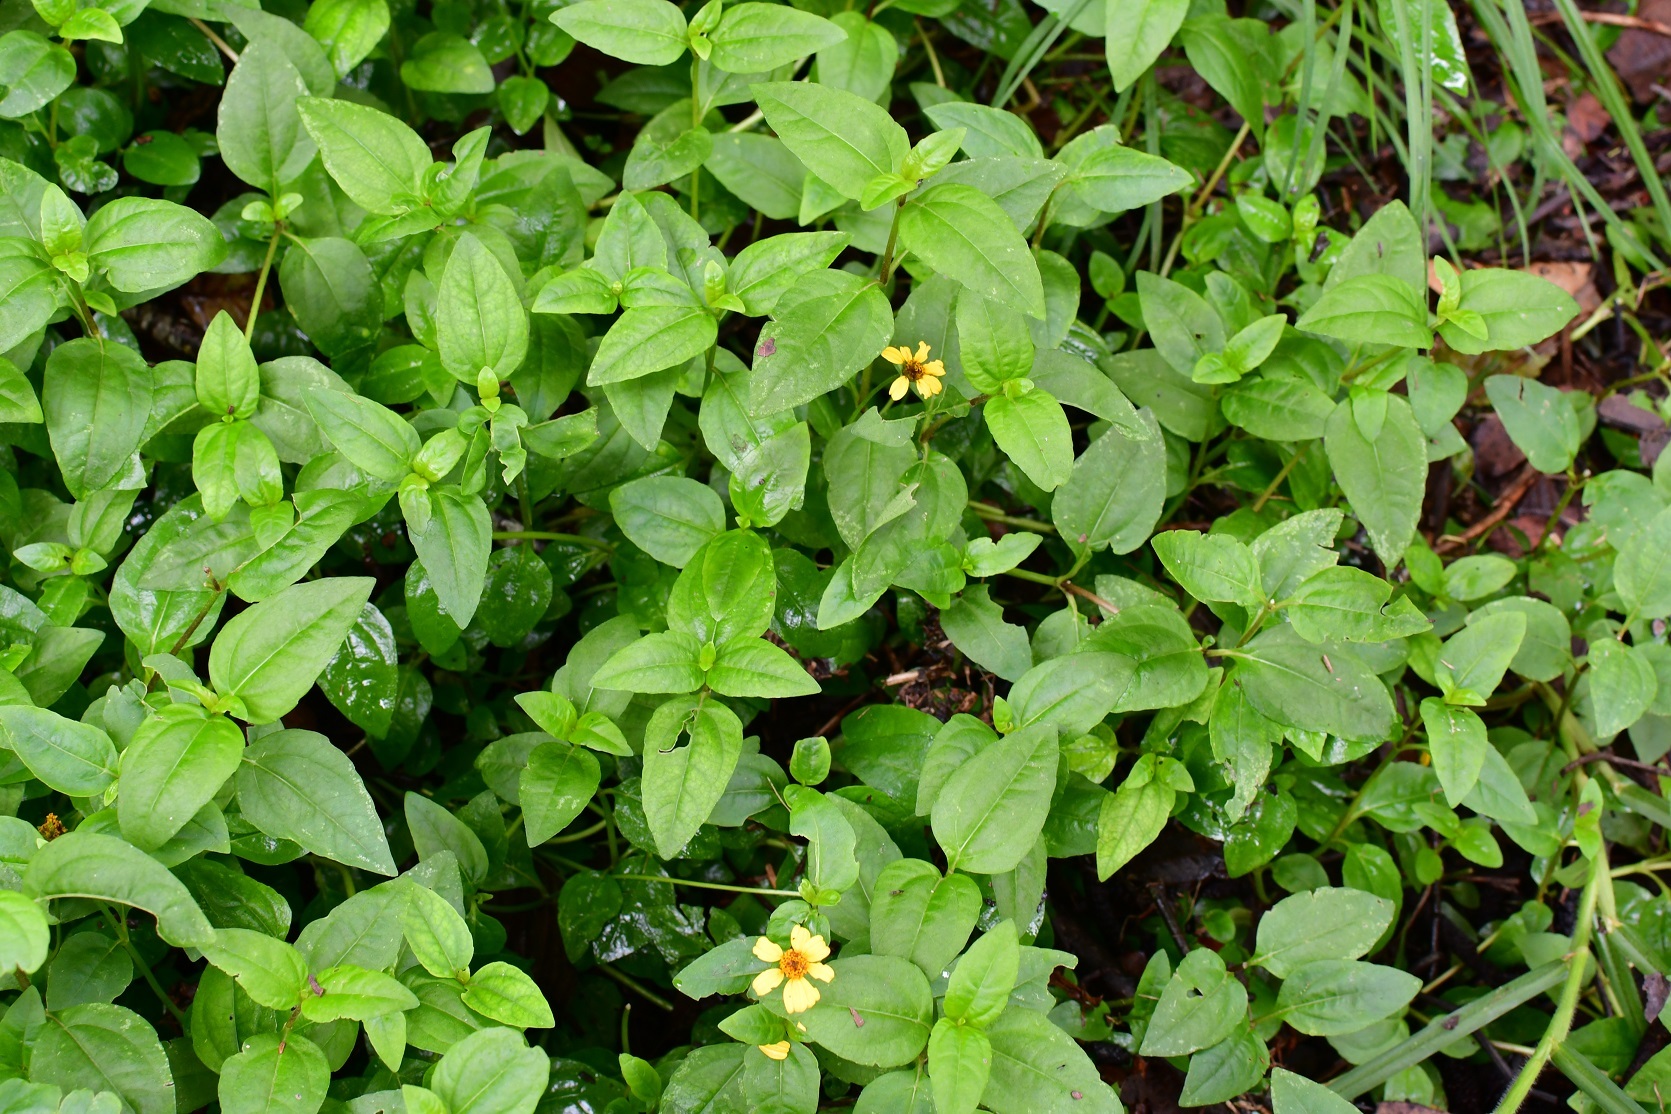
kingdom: Plantae
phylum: Tracheophyta
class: Magnoliopsida
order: Asterales
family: Asteraceae
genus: Acmella
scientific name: Acmella repens
